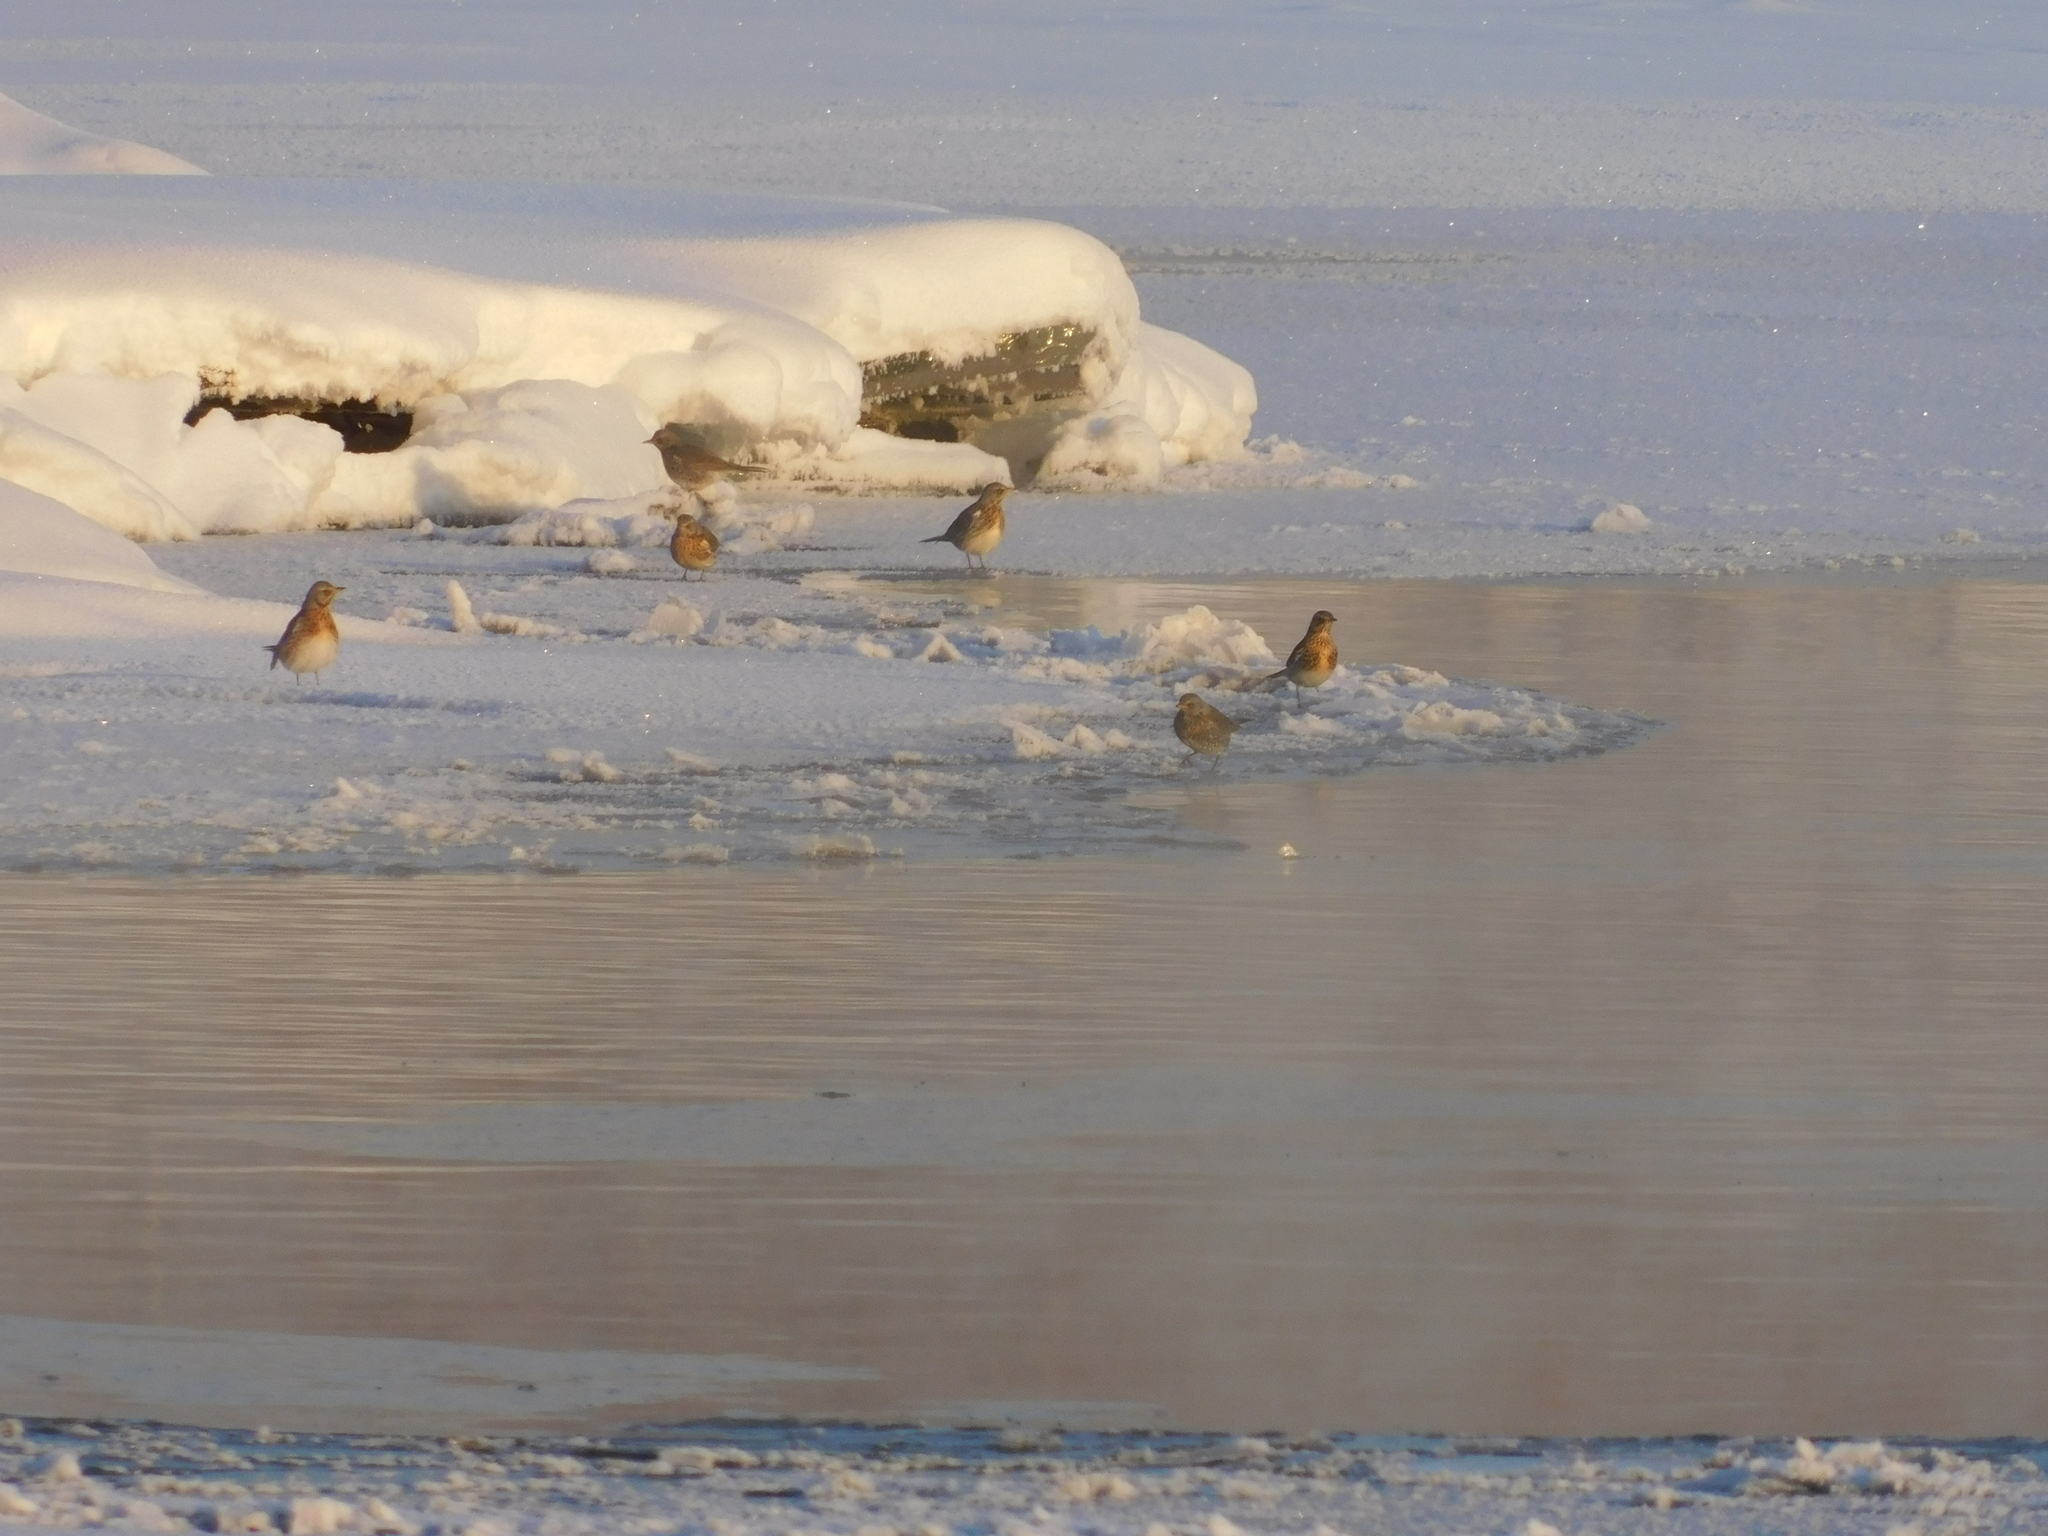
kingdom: Animalia
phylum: Chordata
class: Aves
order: Passeriformes
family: Turdidae
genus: Turdus
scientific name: Turdus pilaris
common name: Fieldfare
